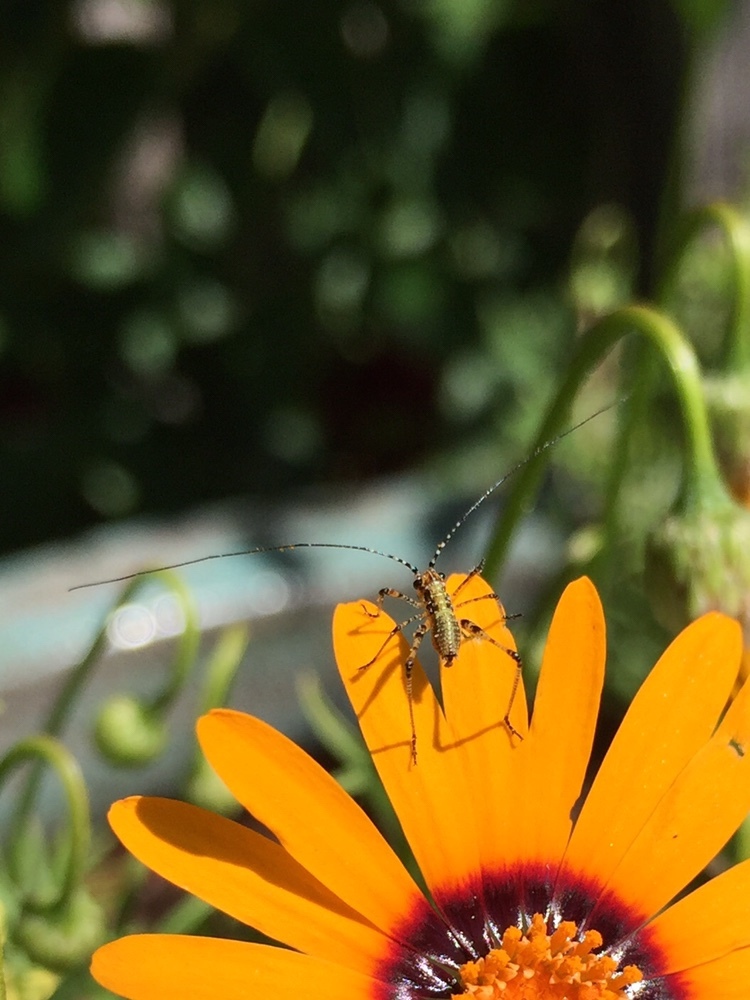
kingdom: Animalia
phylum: Arthropoda
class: Insecta
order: Orthoptera
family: Tettigoniidae
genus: Phaneroptera
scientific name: Phaneroptera nana
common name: Southern sickle bush-cricket
